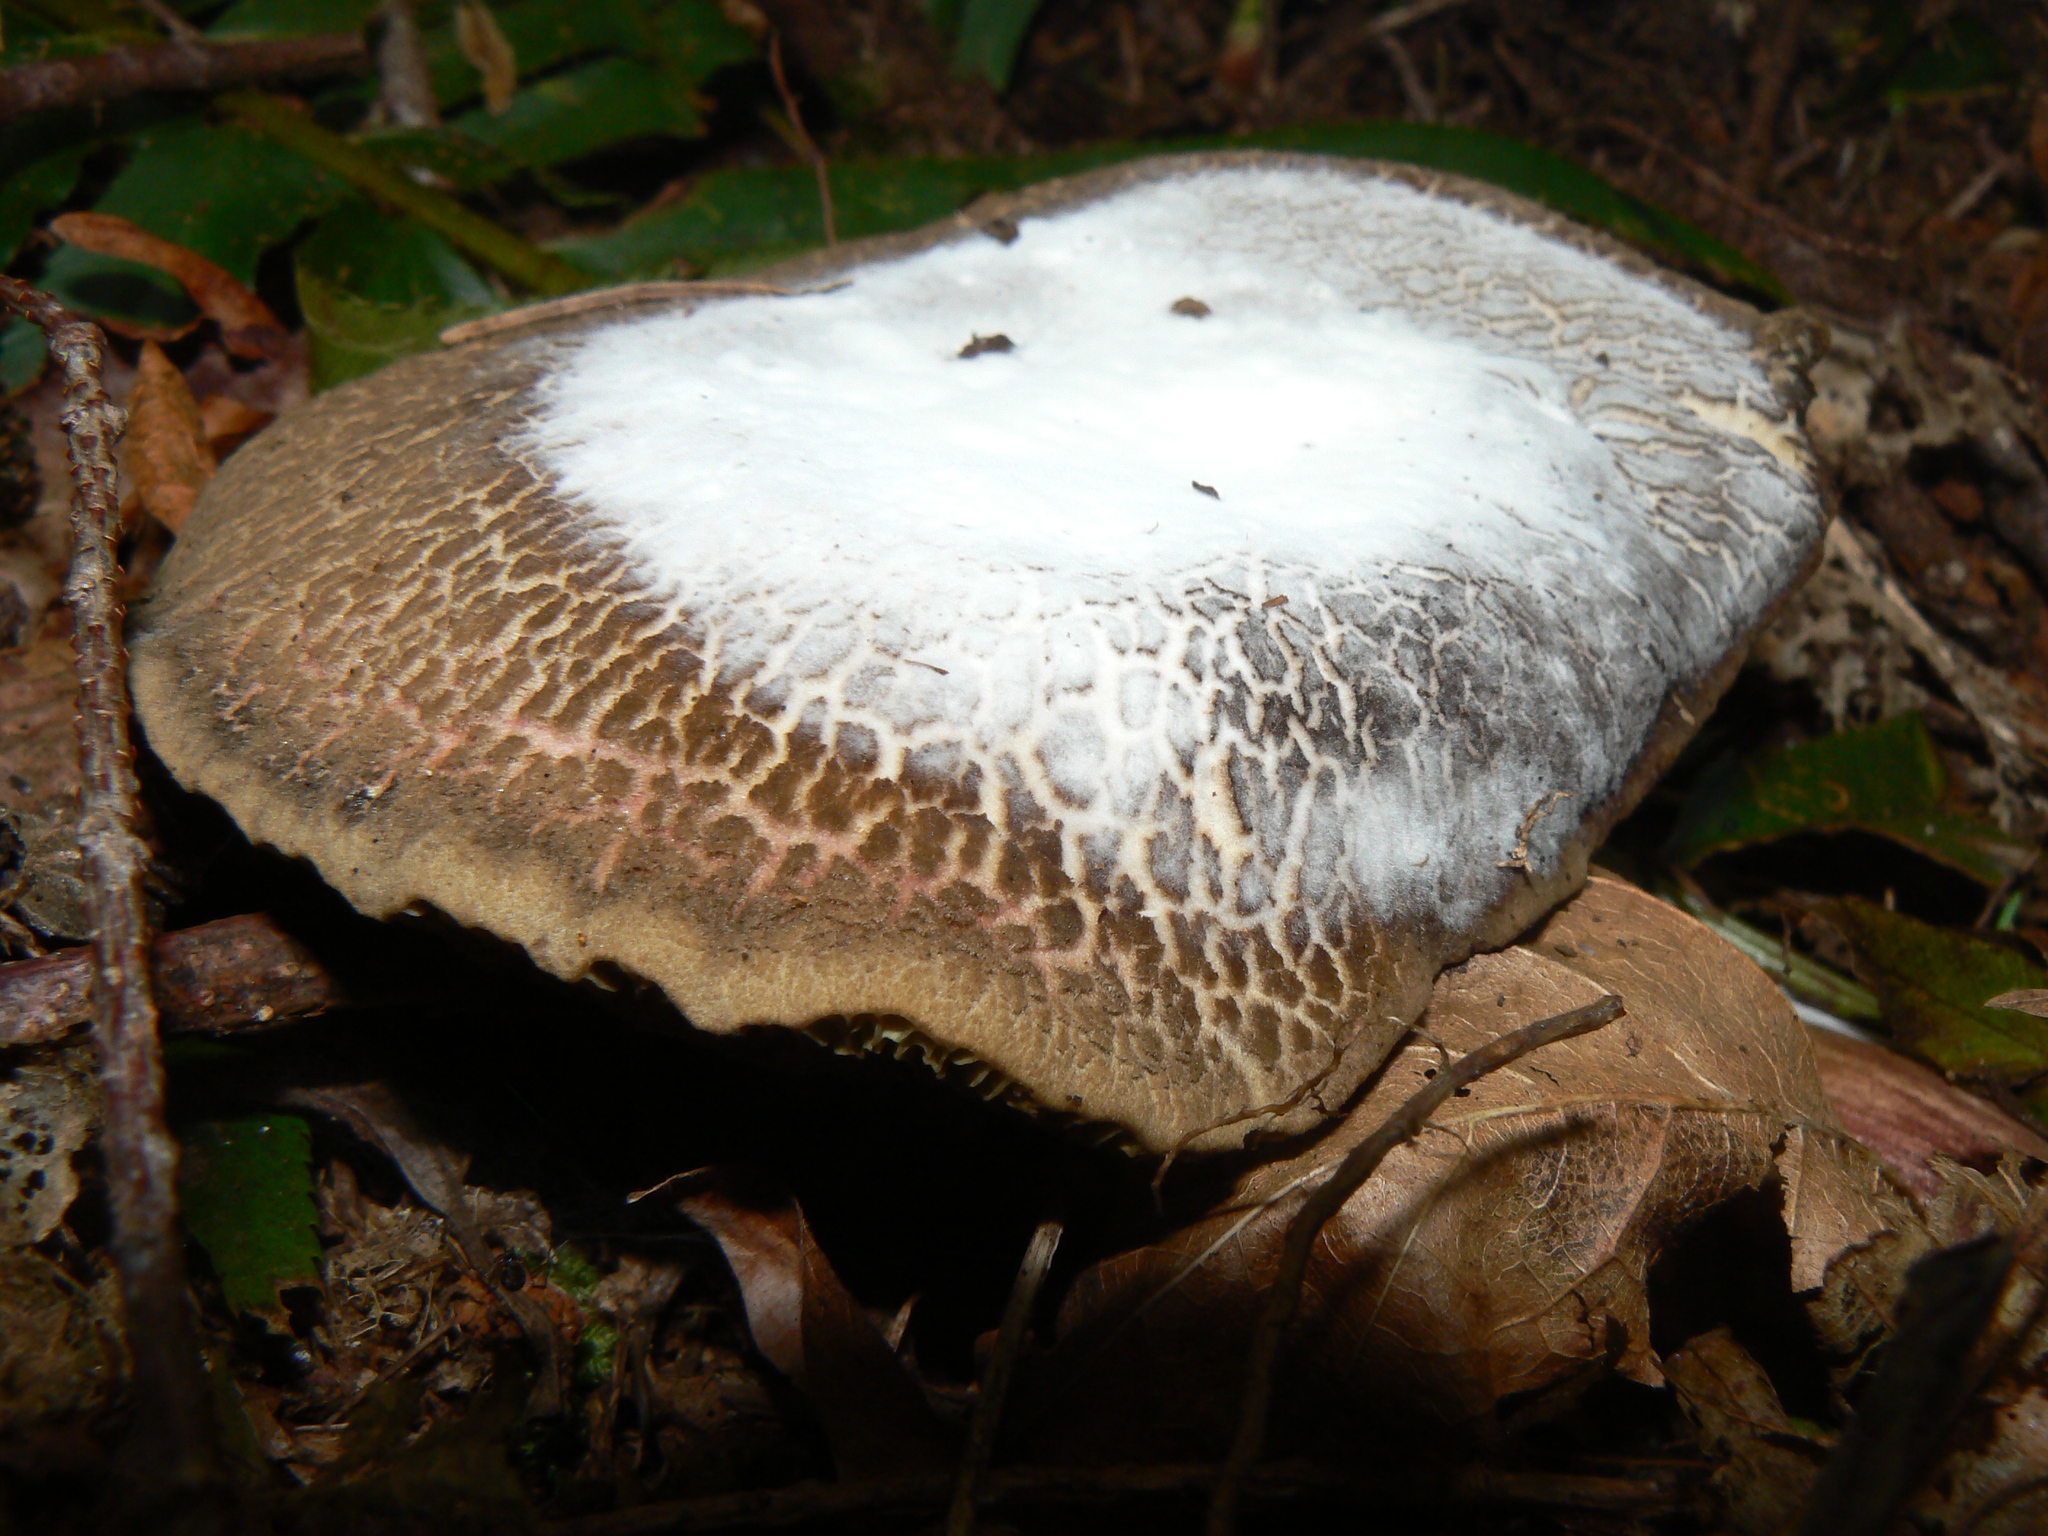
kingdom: Fungi
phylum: Ascomycota
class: Sordariomycetes
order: Hypocreales
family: Hypocreaceae
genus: Hypomyces
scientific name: Hypomyces microspermus
